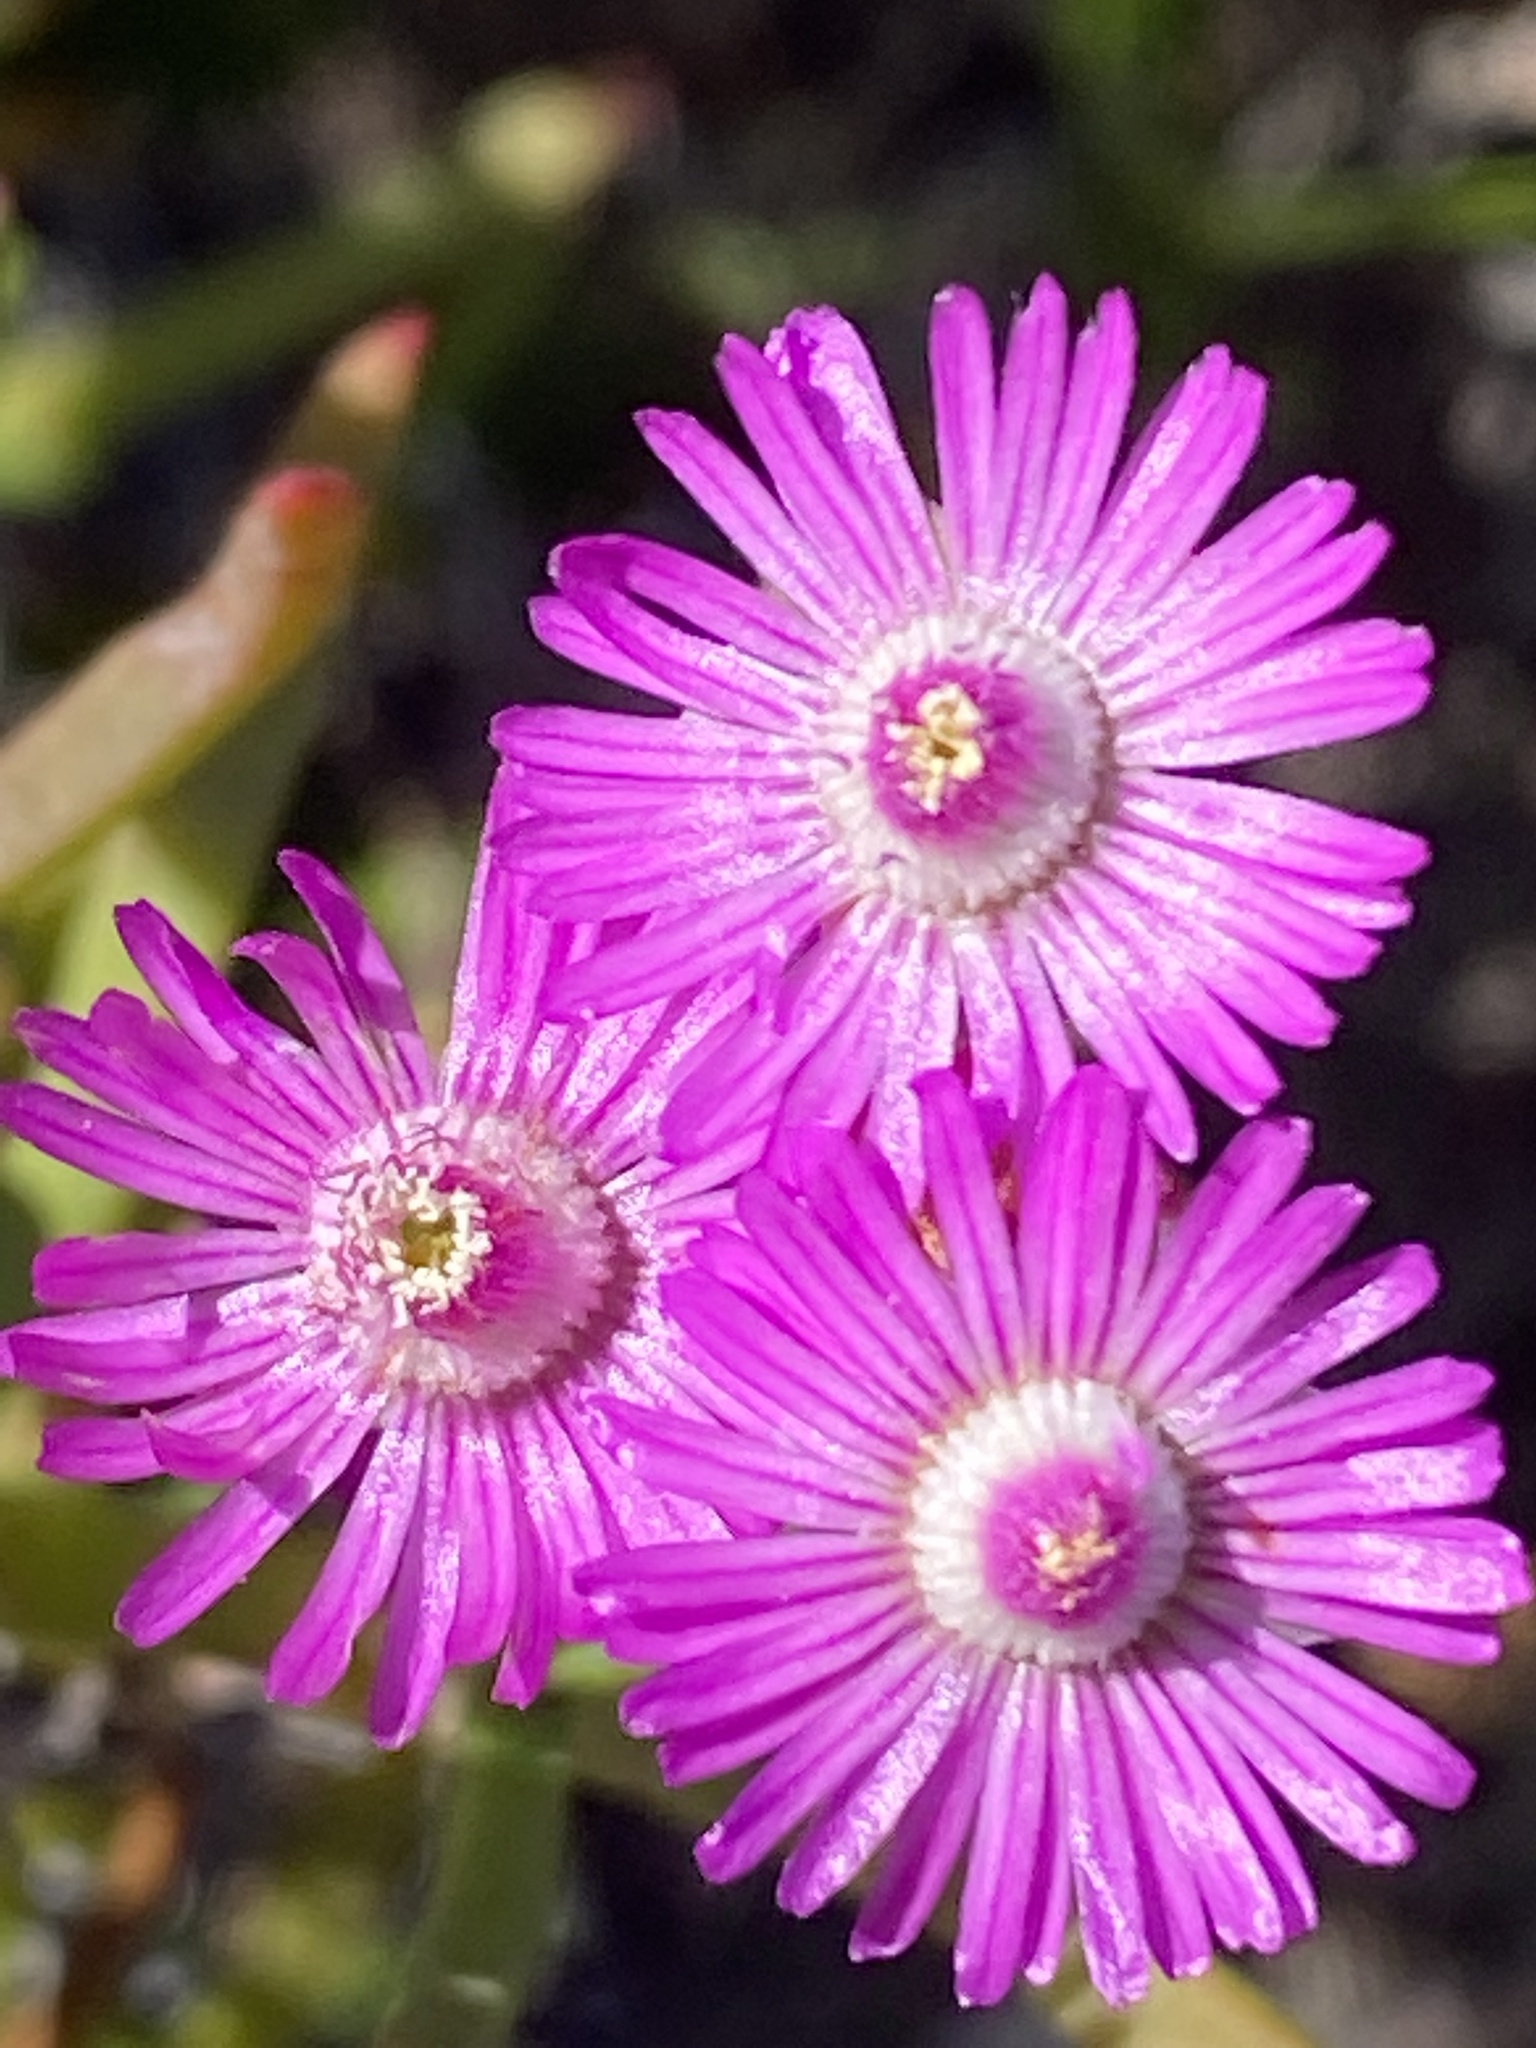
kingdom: Plantae
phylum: Tracheophyta
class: Magnoliopsida
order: Caryophyllales
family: Aizoaceae
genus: Ruschia
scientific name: Ruschia macowanii
